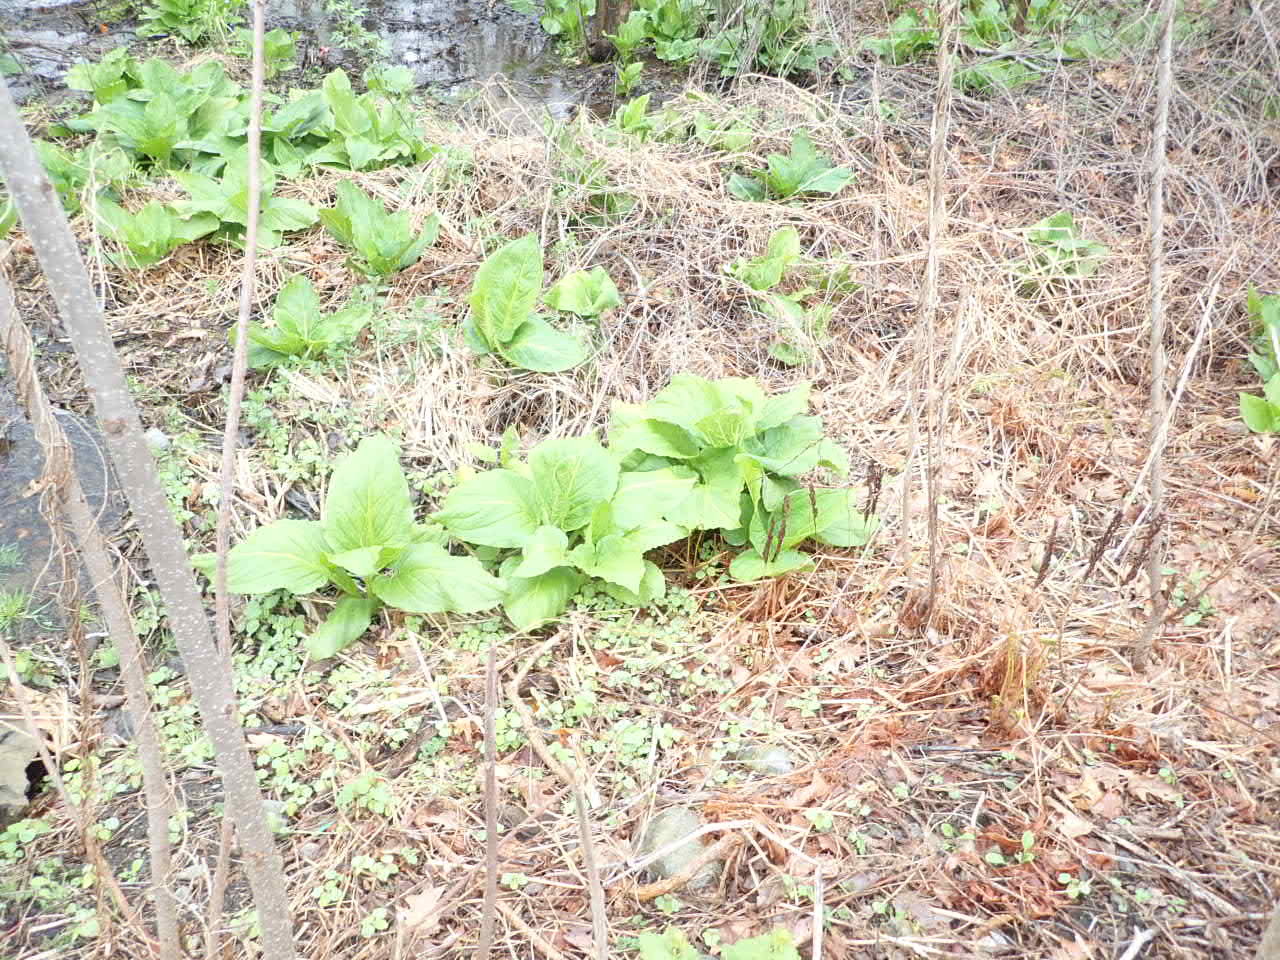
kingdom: Plantae
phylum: Tracheophyta
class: Liliopsida
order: Alismatales
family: Araceae
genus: Symplocarpus
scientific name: Symplocarpus foetidus
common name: Eastern skunk cabbage
